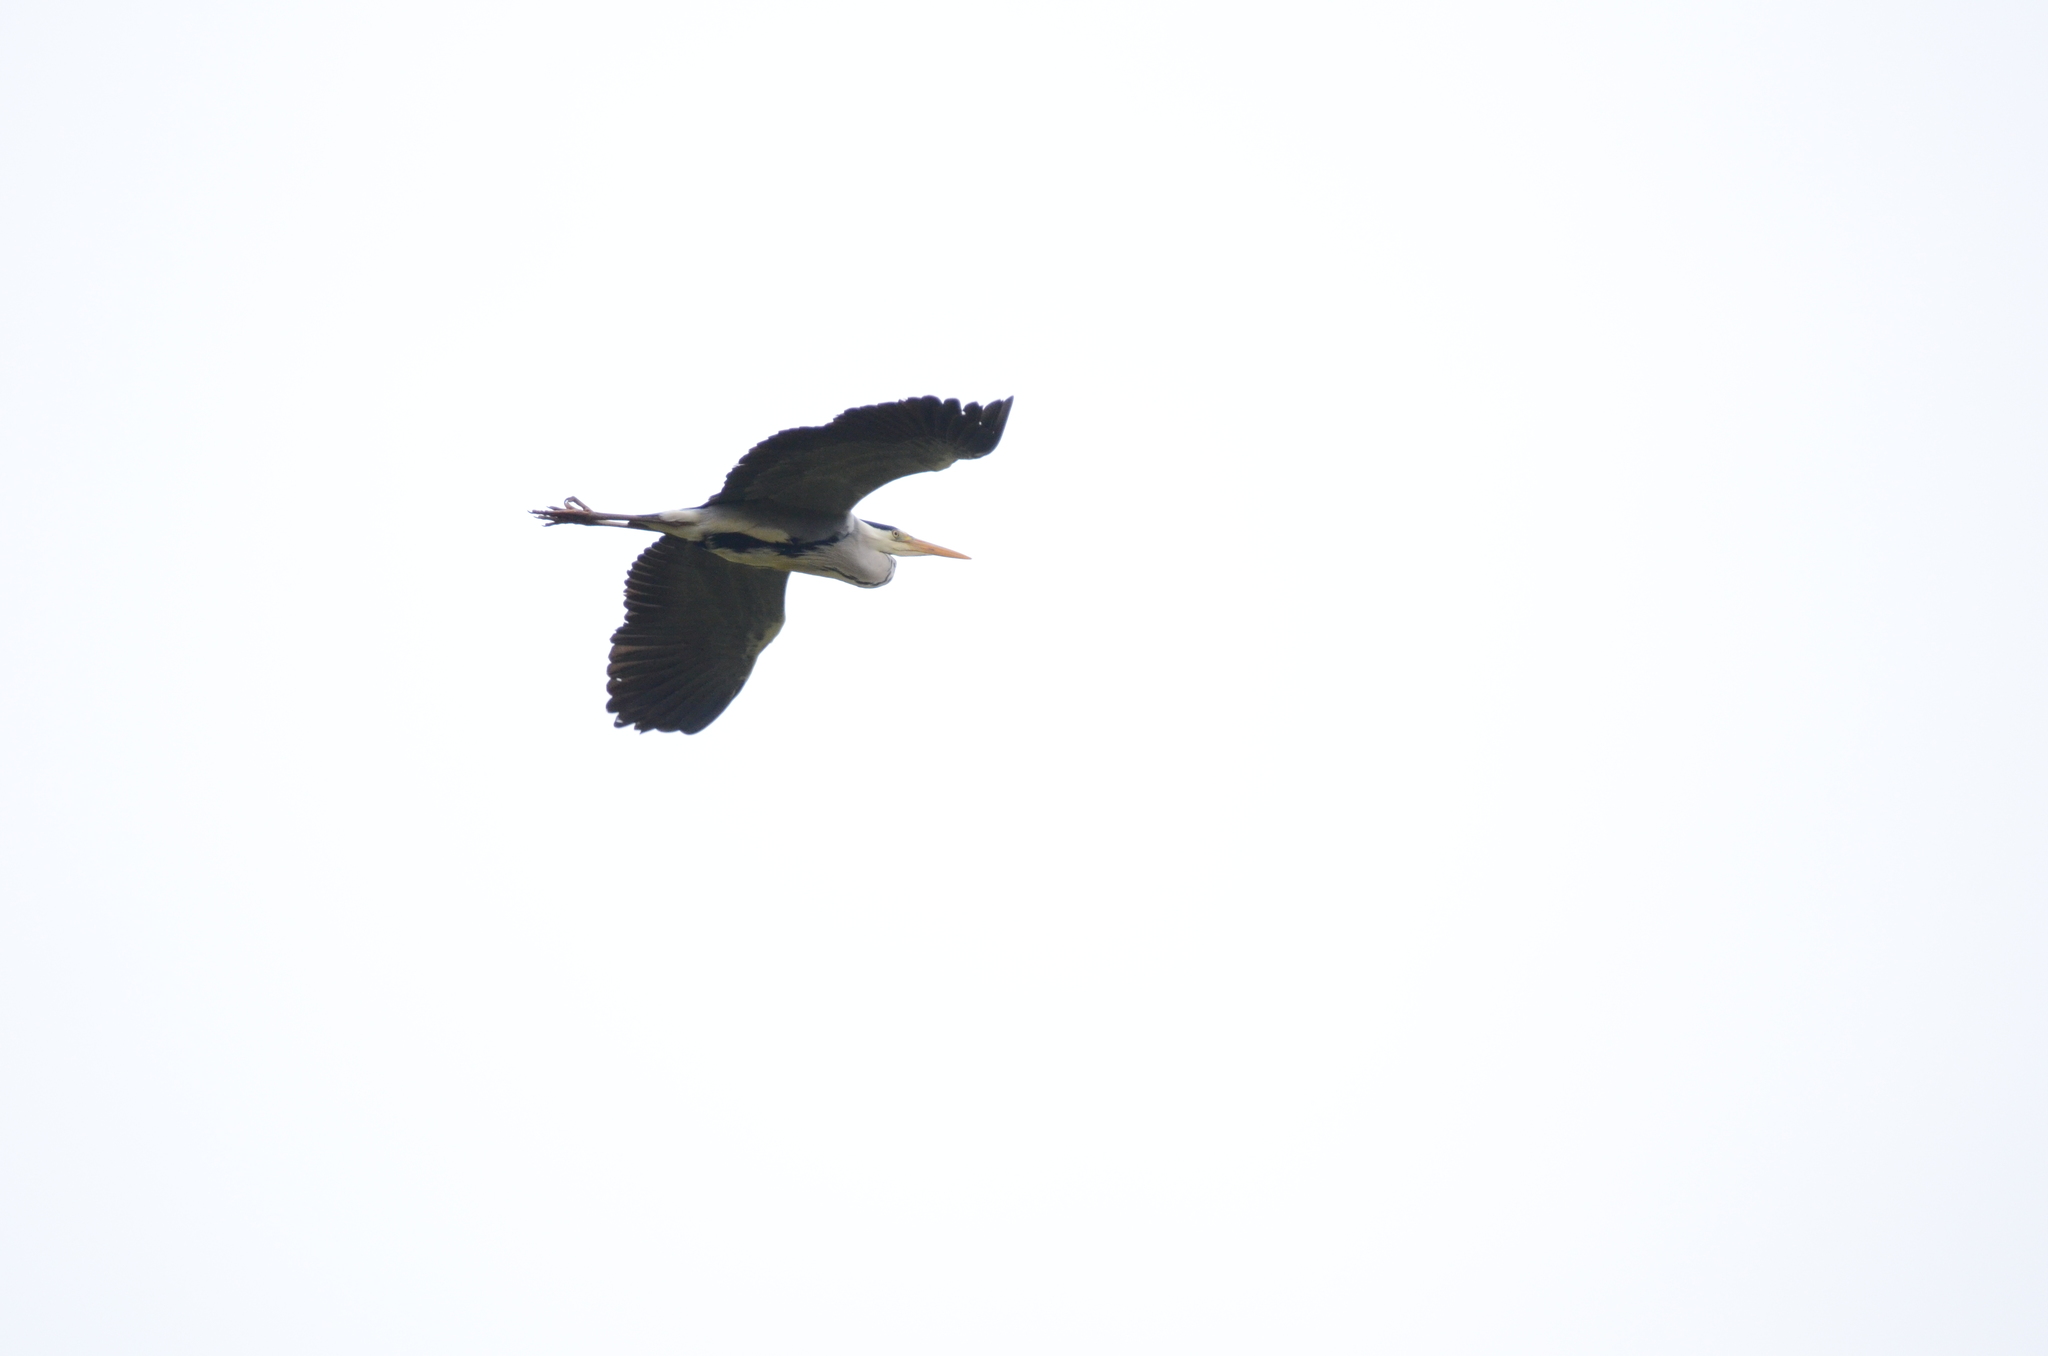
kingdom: Animalia
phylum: Chordata
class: Aves
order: Pelecaniformes
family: Ardeidae
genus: Ardea
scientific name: Ardea cinerea
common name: Grey heron
